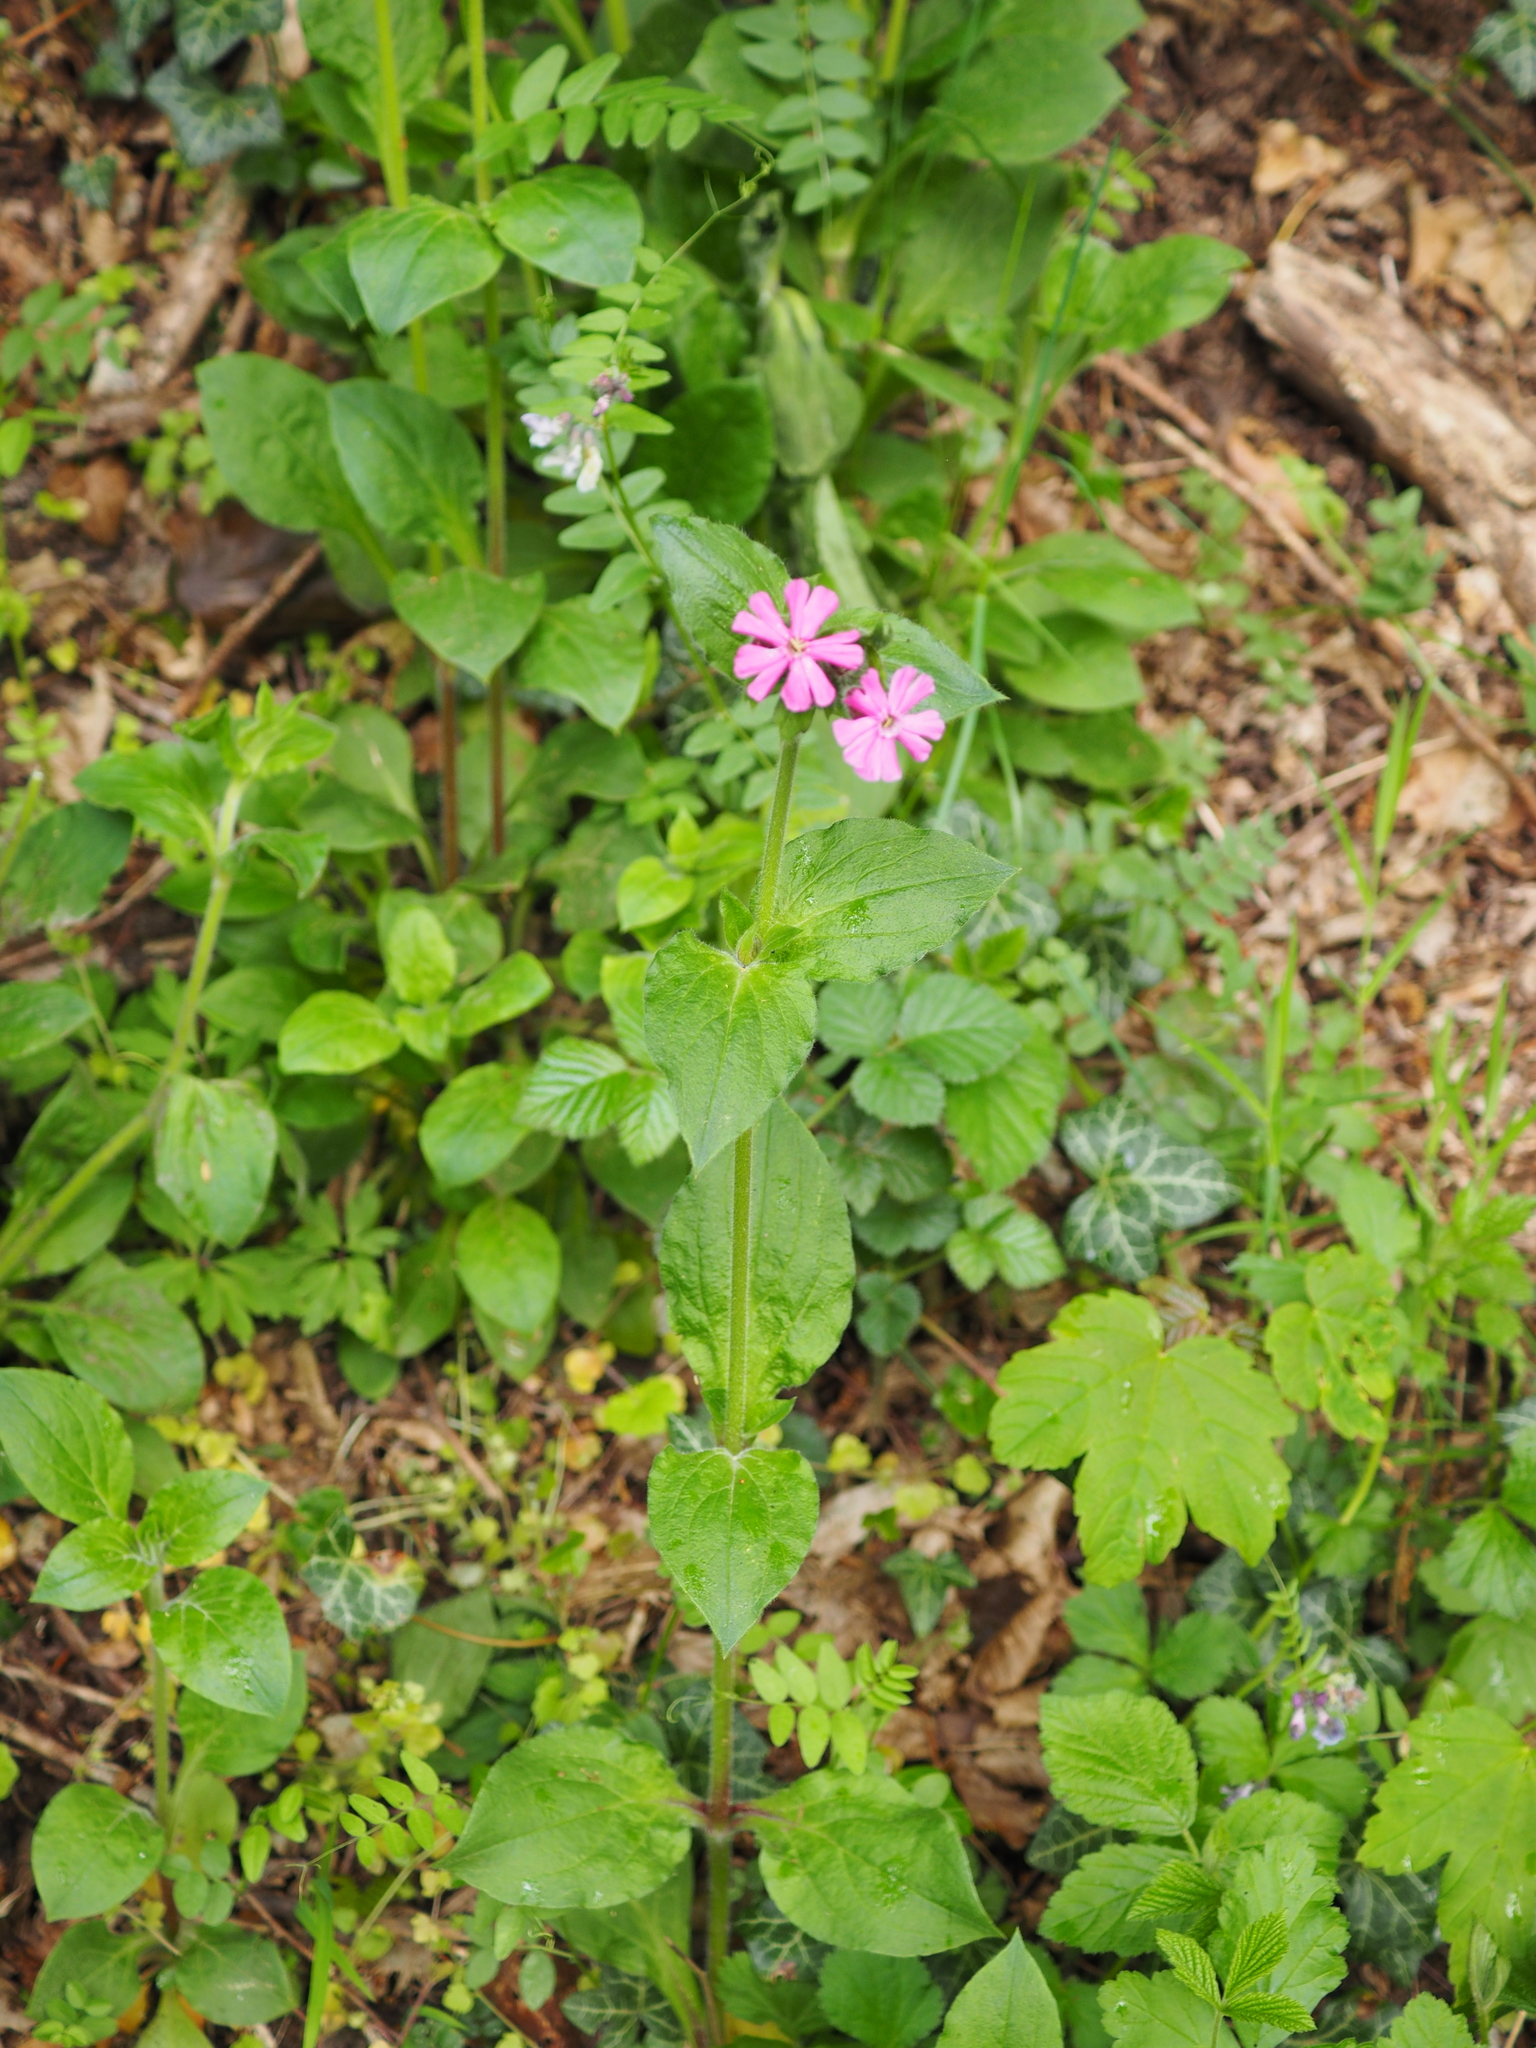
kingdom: Plantae
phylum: Tracheophyta
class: Magnoliopsida
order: Caryophyllales
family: Caryophyllaceae
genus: Silene
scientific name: Silene dioica
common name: Red campion
